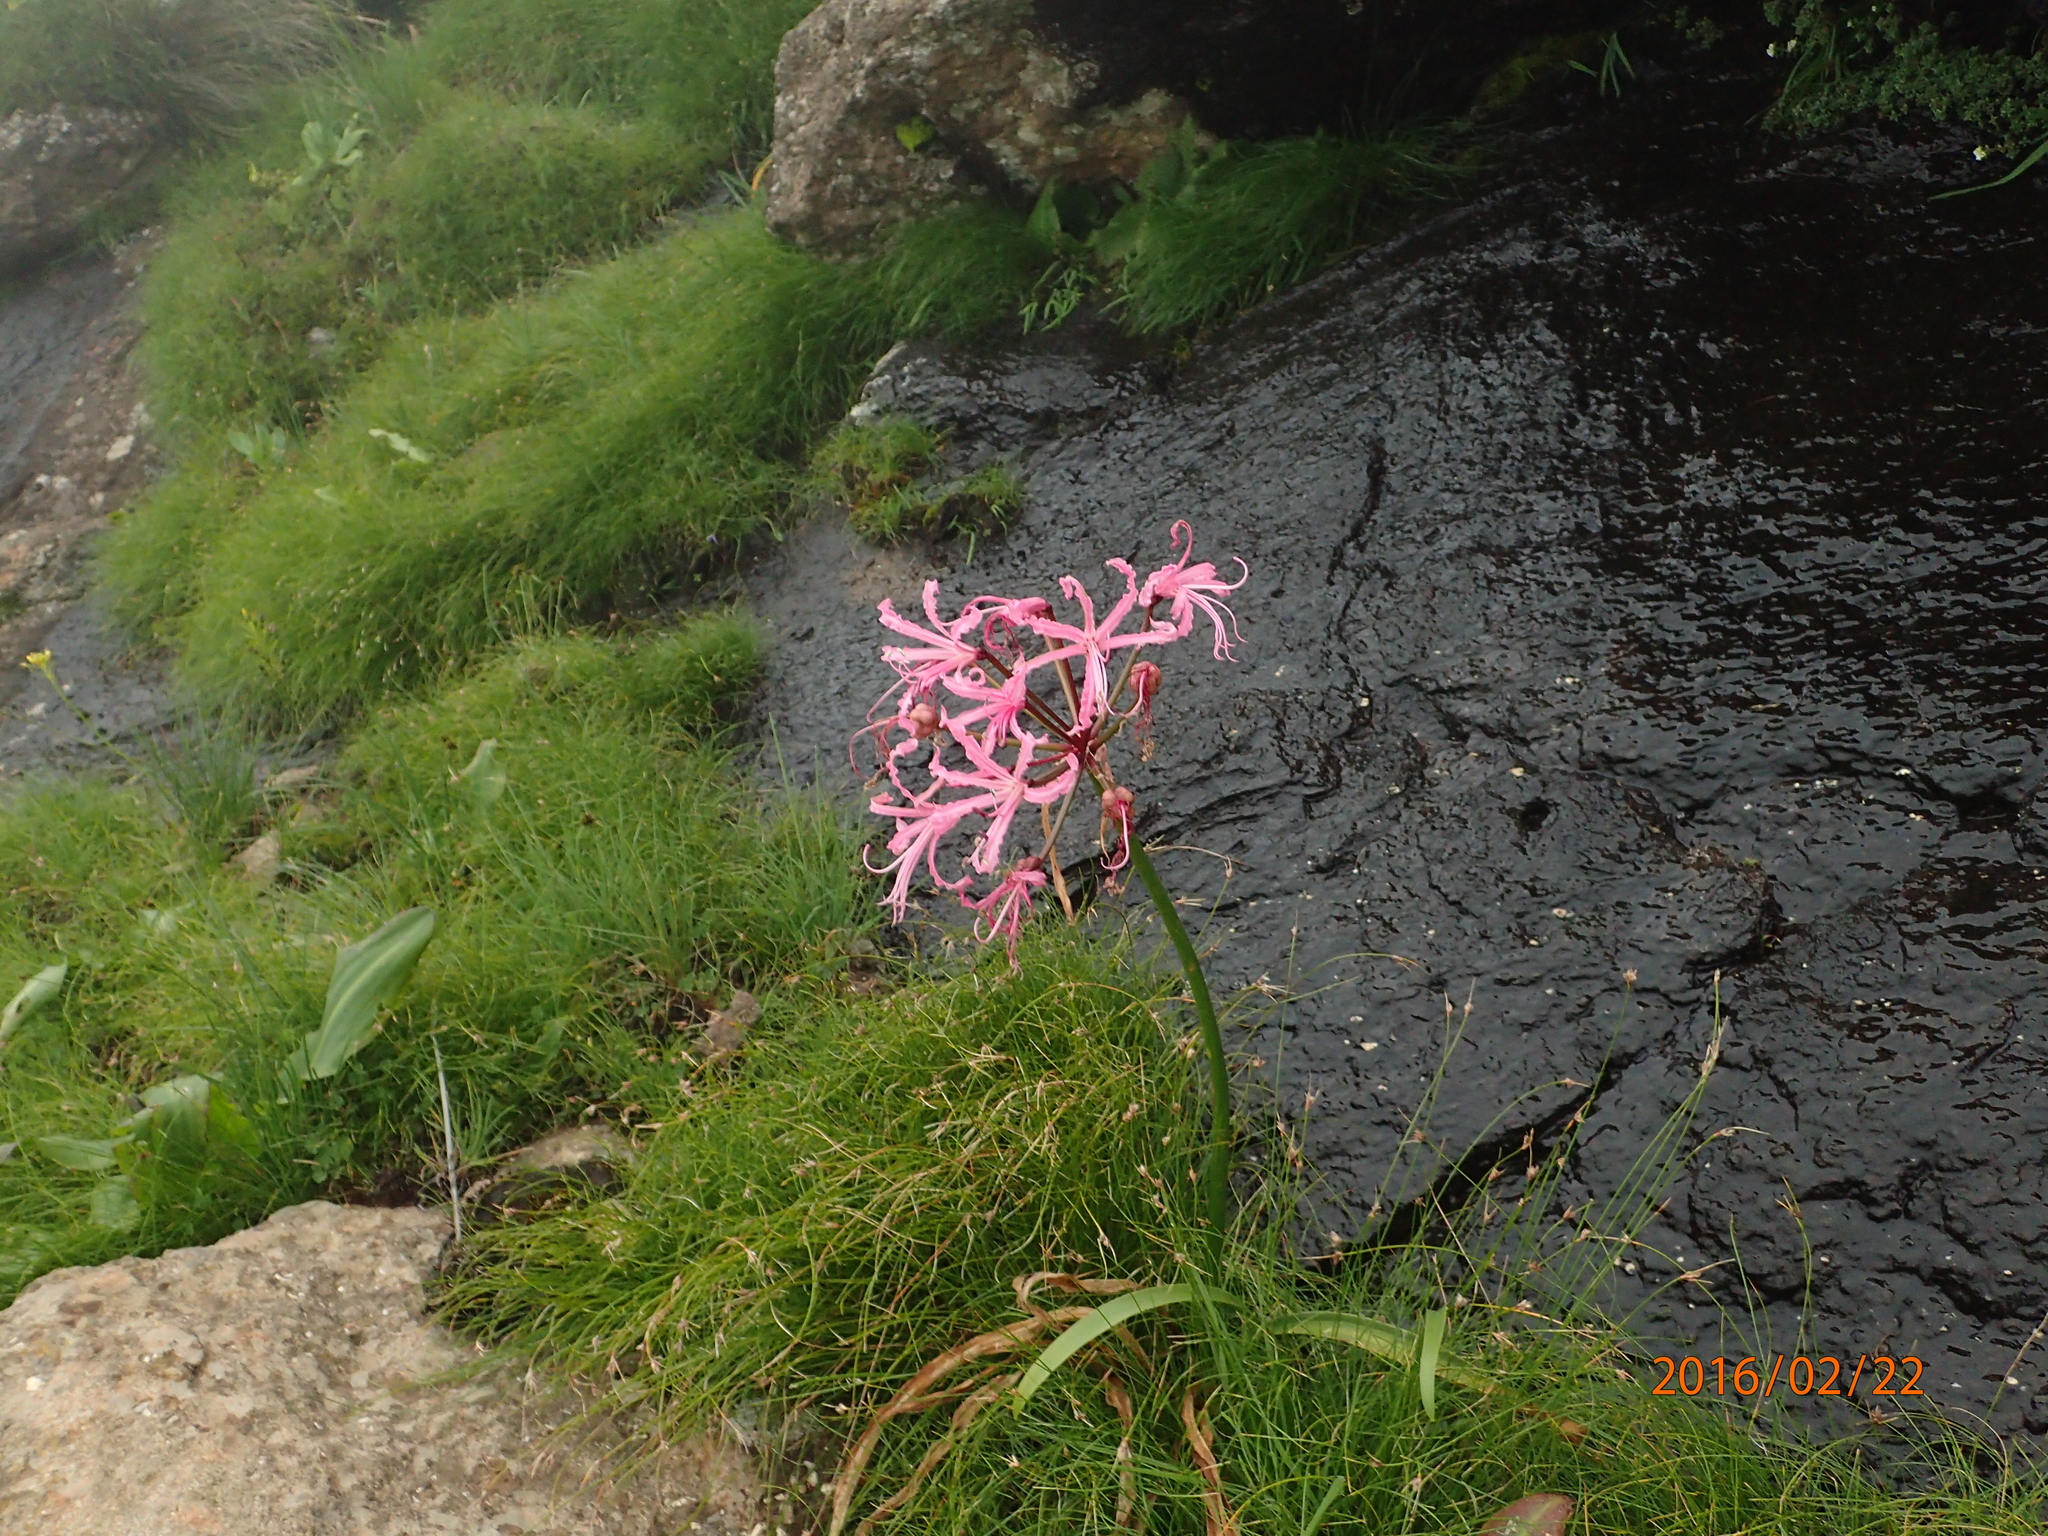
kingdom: Plantae
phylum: Tracheophyta
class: Liliopsida
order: Asparagales
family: Amaryllidaceae
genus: Nerine
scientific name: Nerine bowdenii
